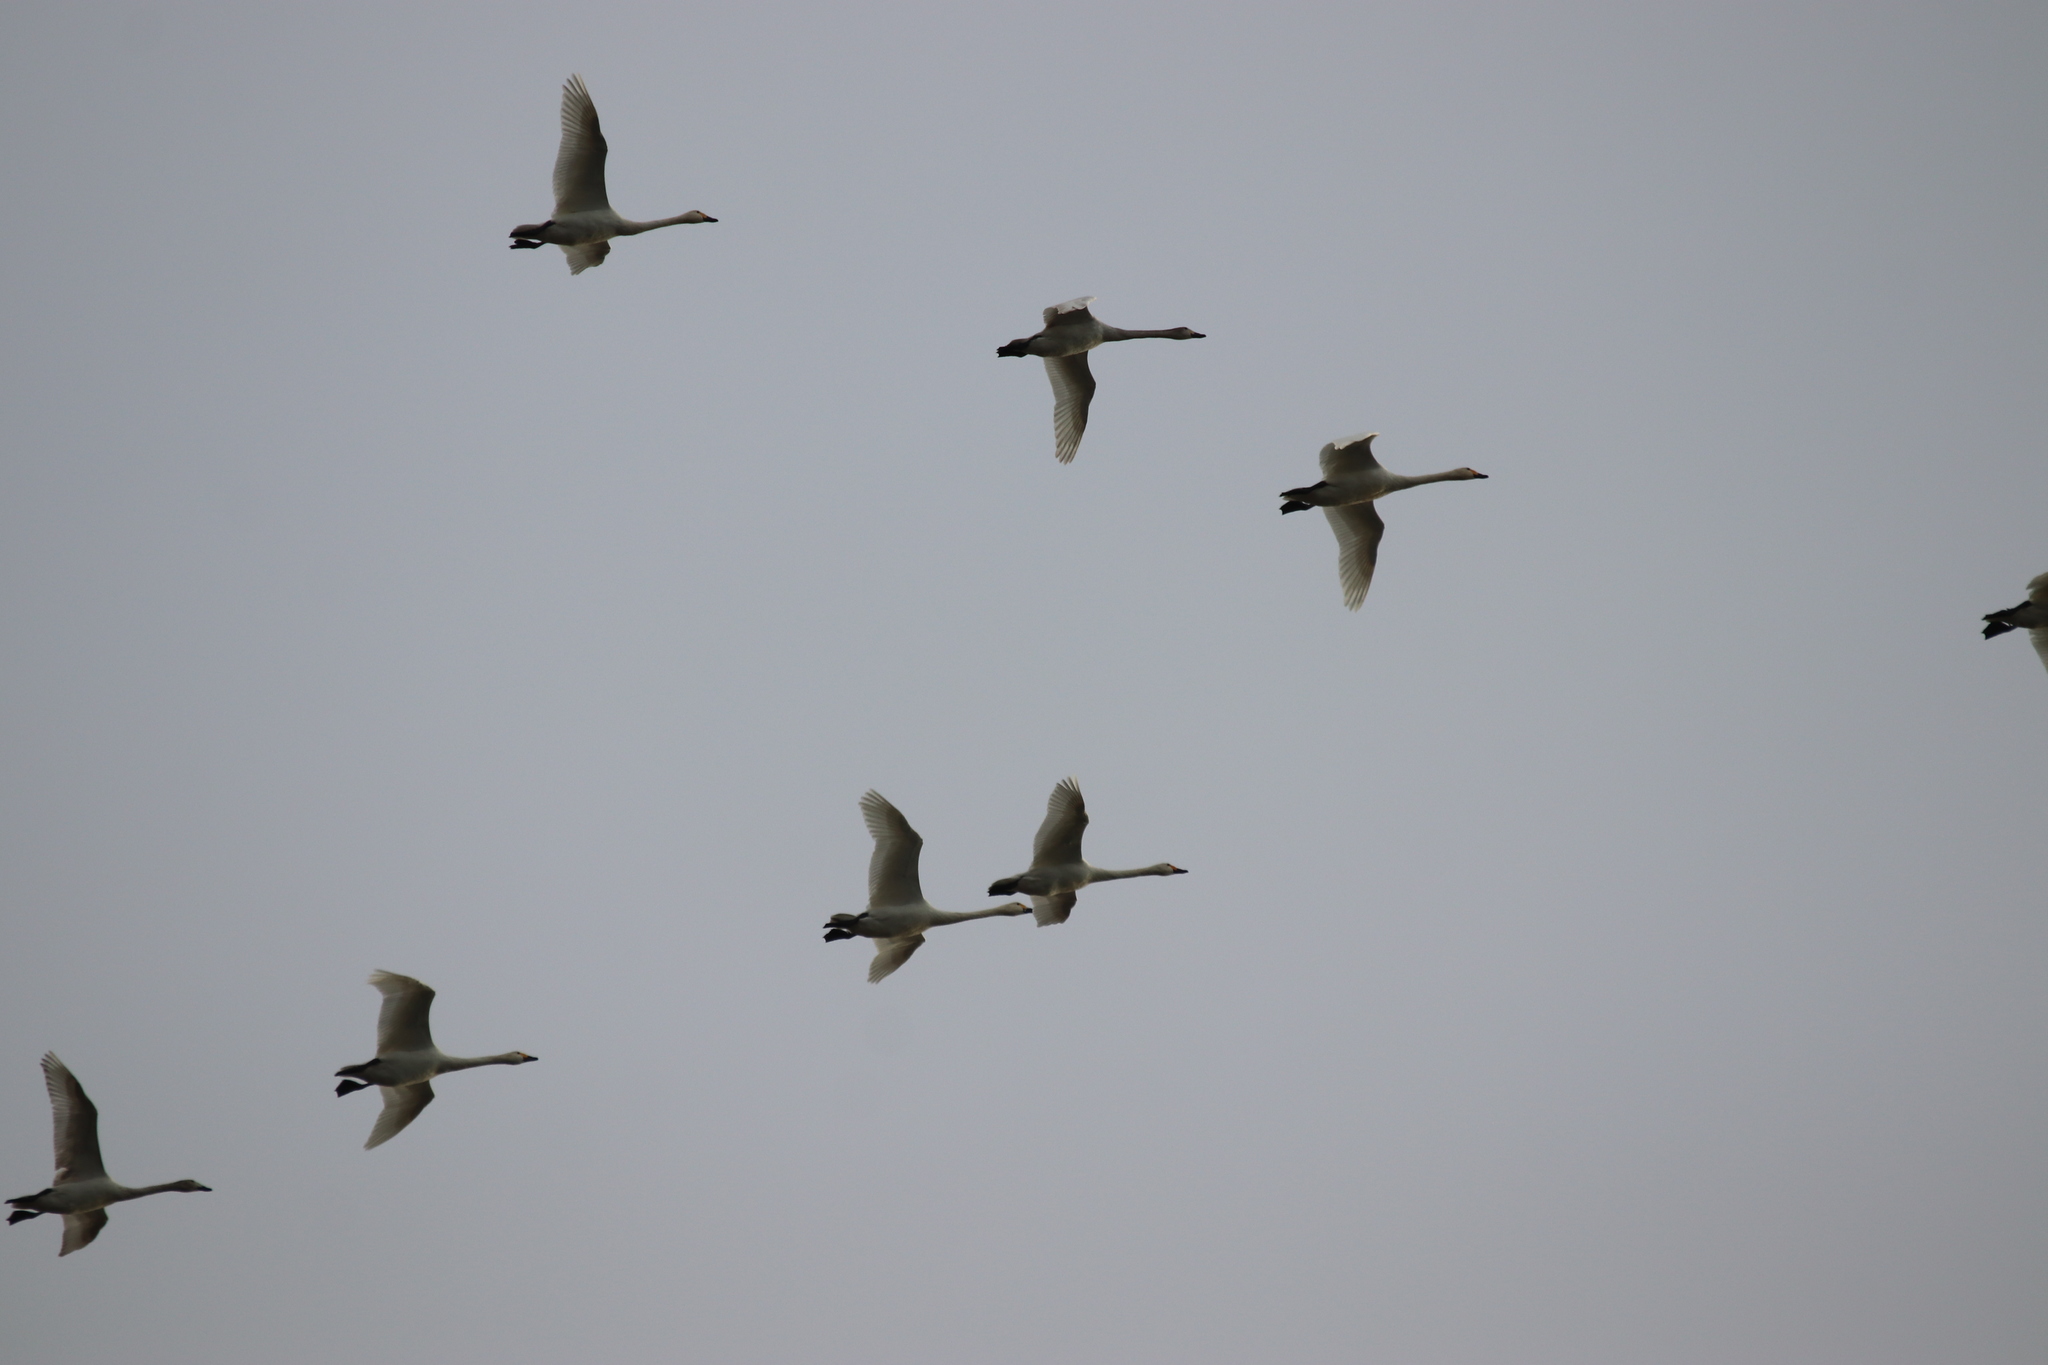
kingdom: Animalia
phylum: Chordata
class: Aves
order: Anseriformes
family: Anatidae
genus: Cygnus
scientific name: Cygnus columbianus
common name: Tundra swan
